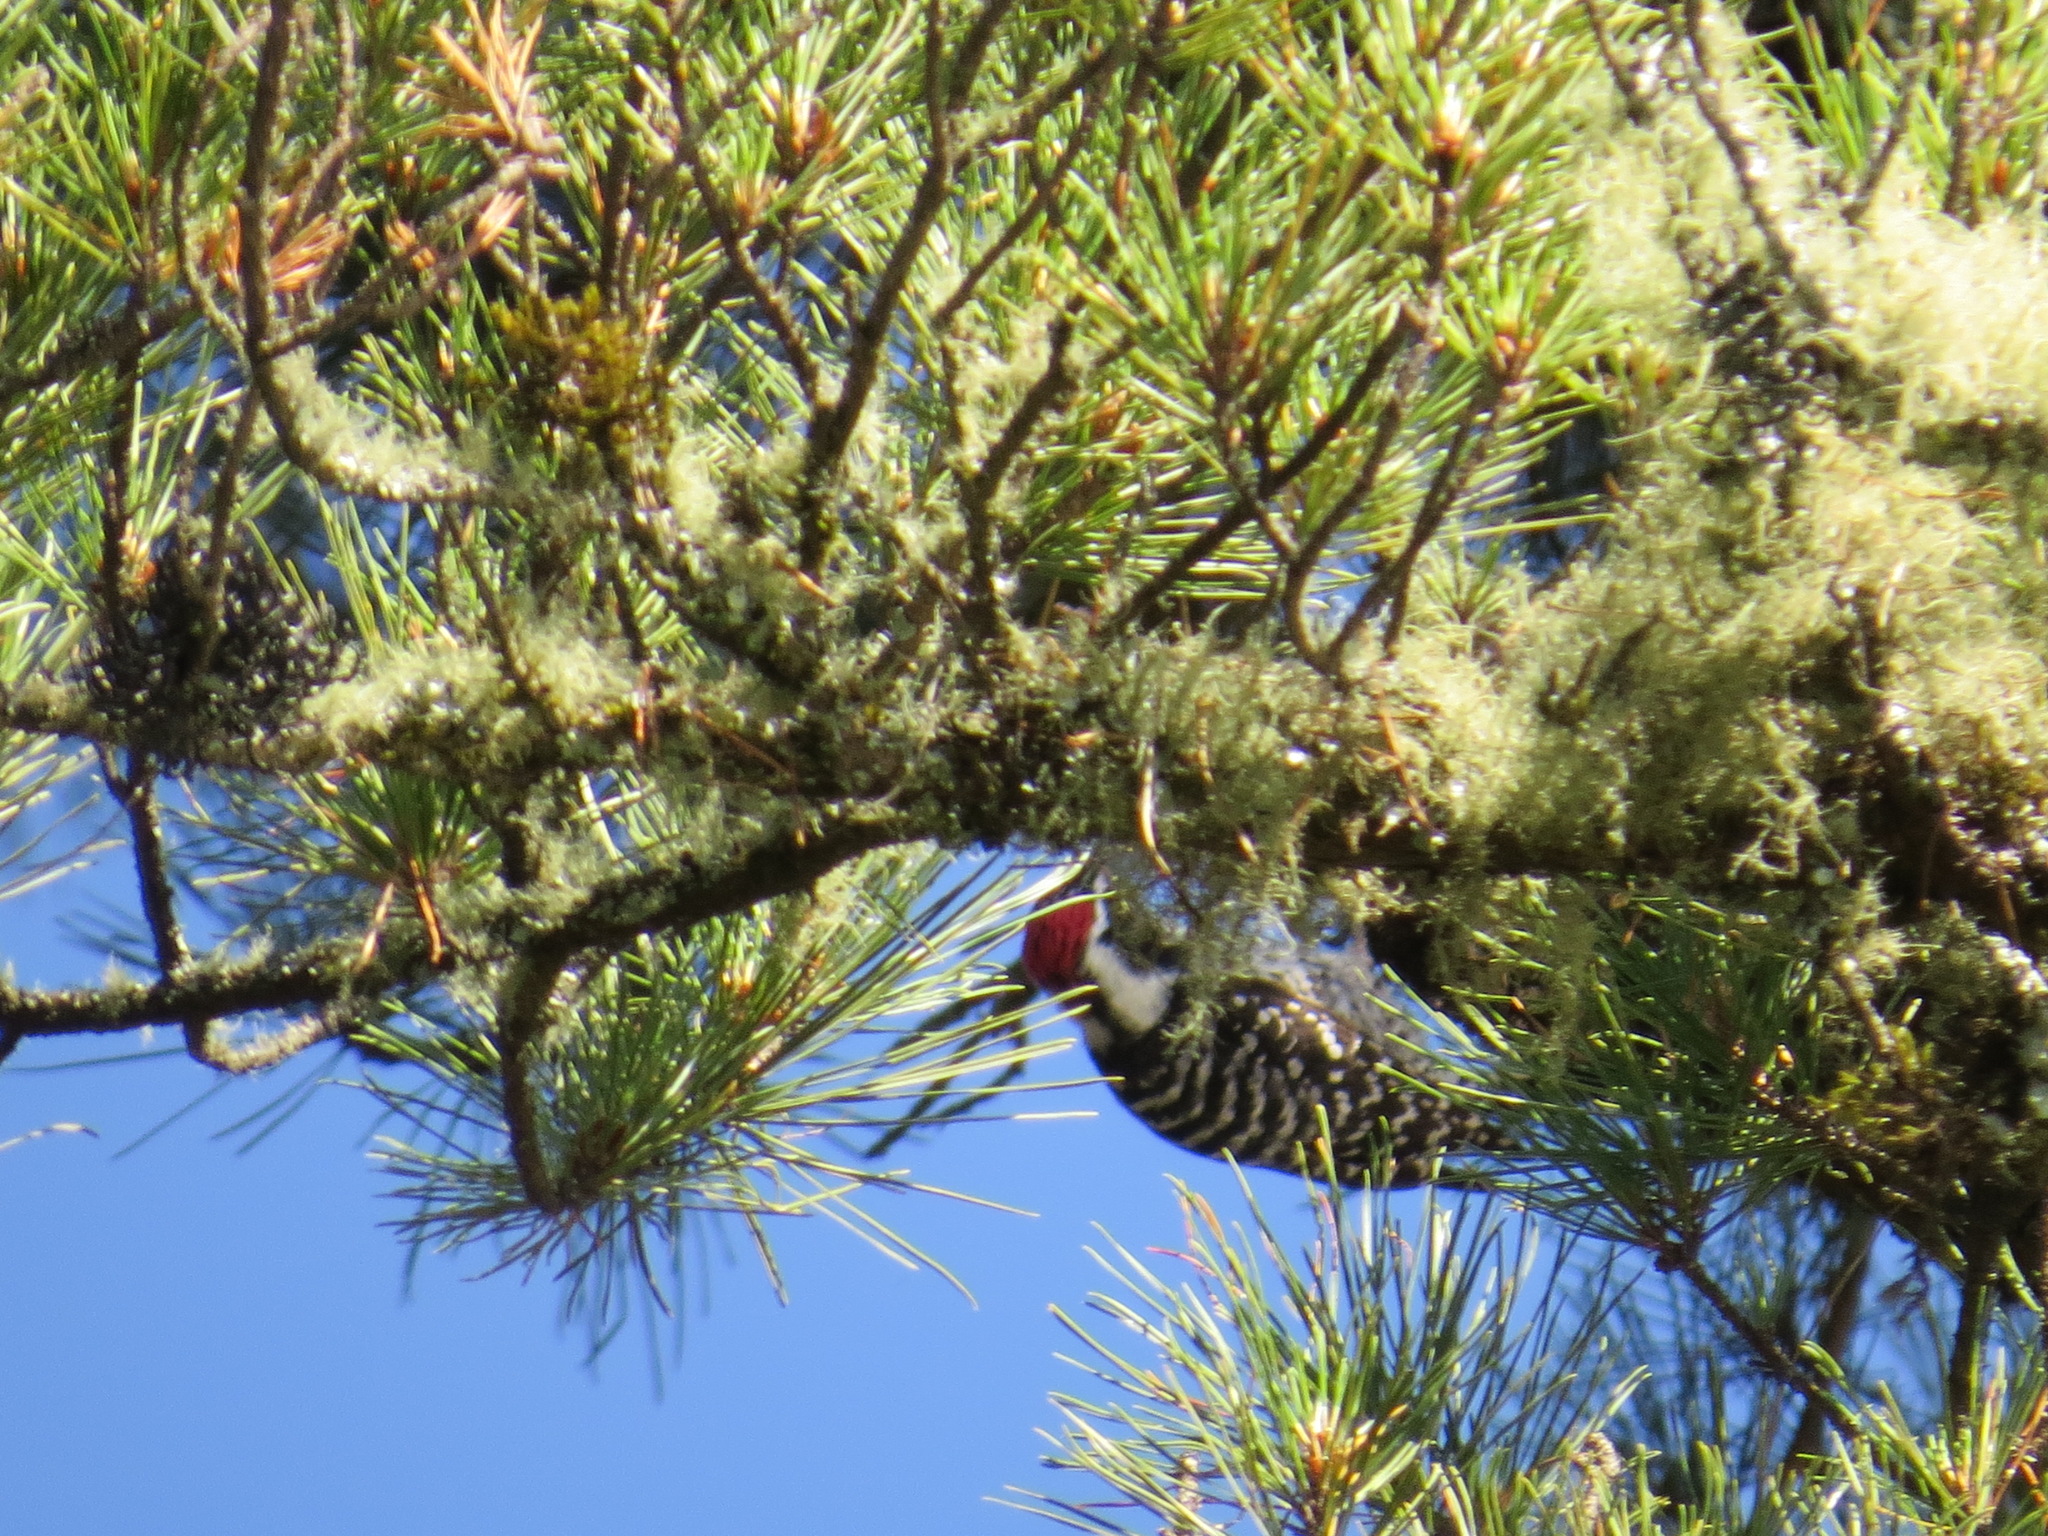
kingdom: Animalia
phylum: Chordata
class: Aves
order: Piciformes
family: Picidae
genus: Dryobates
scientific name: Dryobates nuttallii
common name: Nuttall's woodpecker
